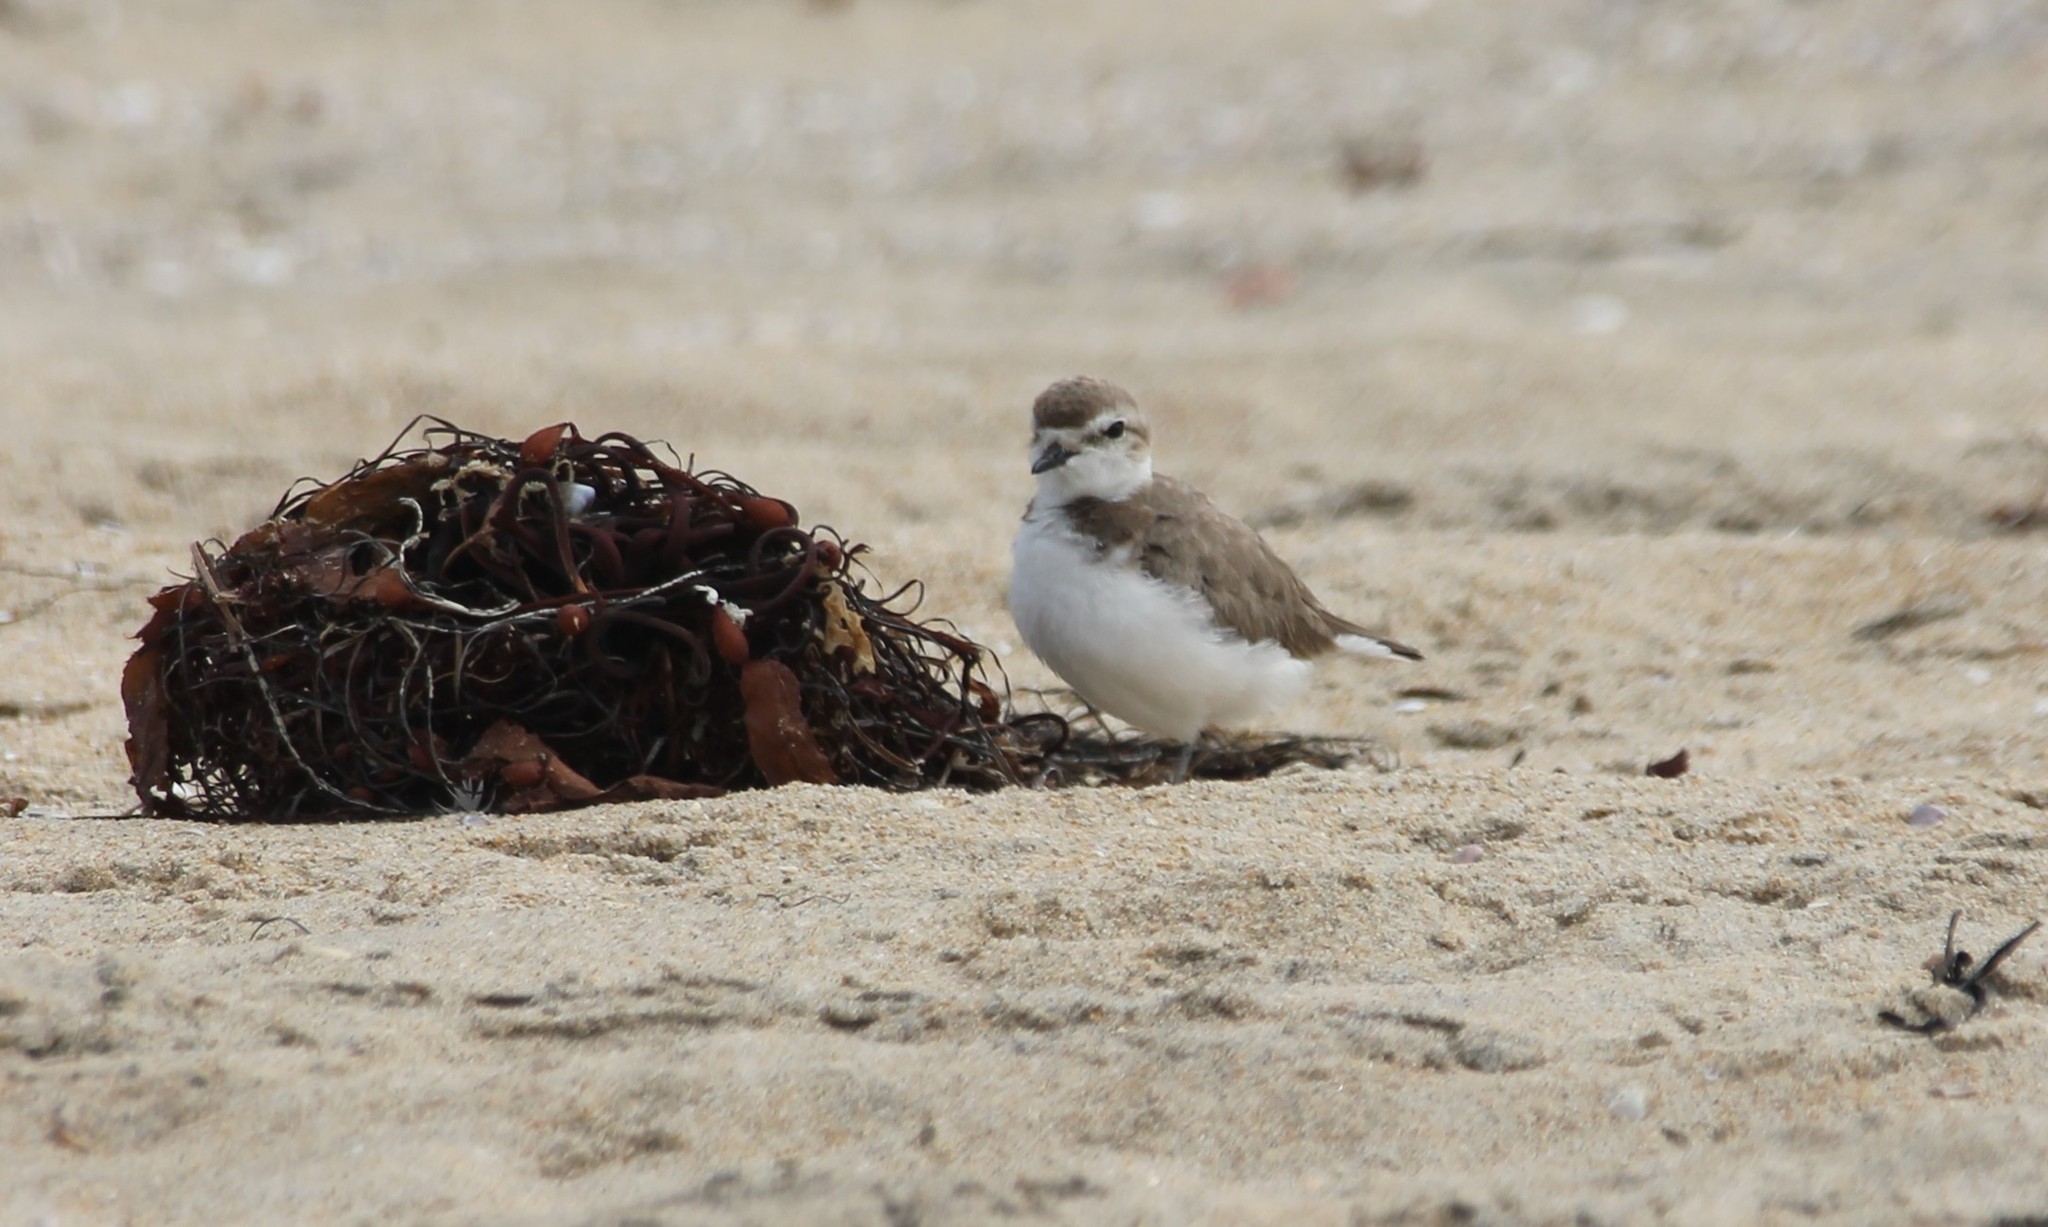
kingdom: Animalia
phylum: Chordata
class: Aves
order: Charadriiformes
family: Charadriidae
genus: Anarhynchus
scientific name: Anarhynchus
